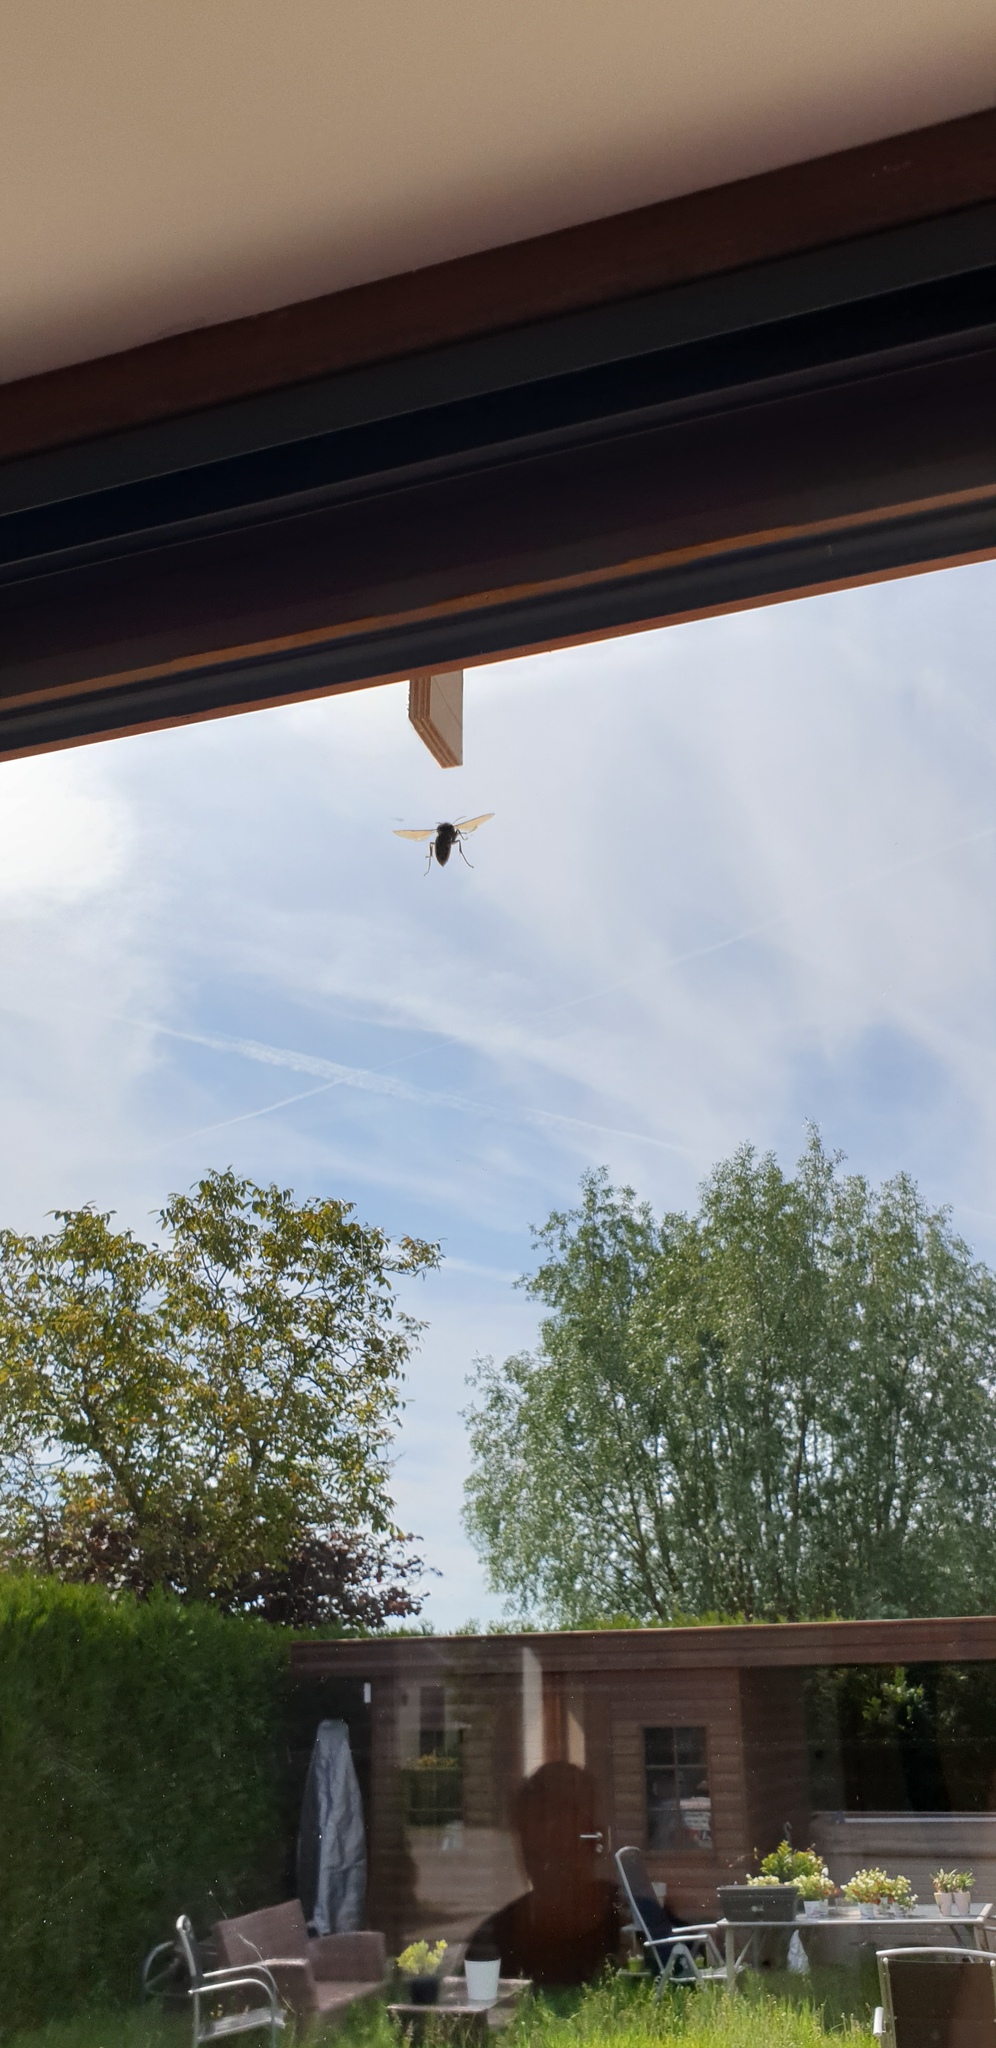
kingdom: Animalia
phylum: Arthropoda
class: Insecta
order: Hymenoptera
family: Vespidae
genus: Vespa
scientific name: Vespa crabro
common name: Hornet
